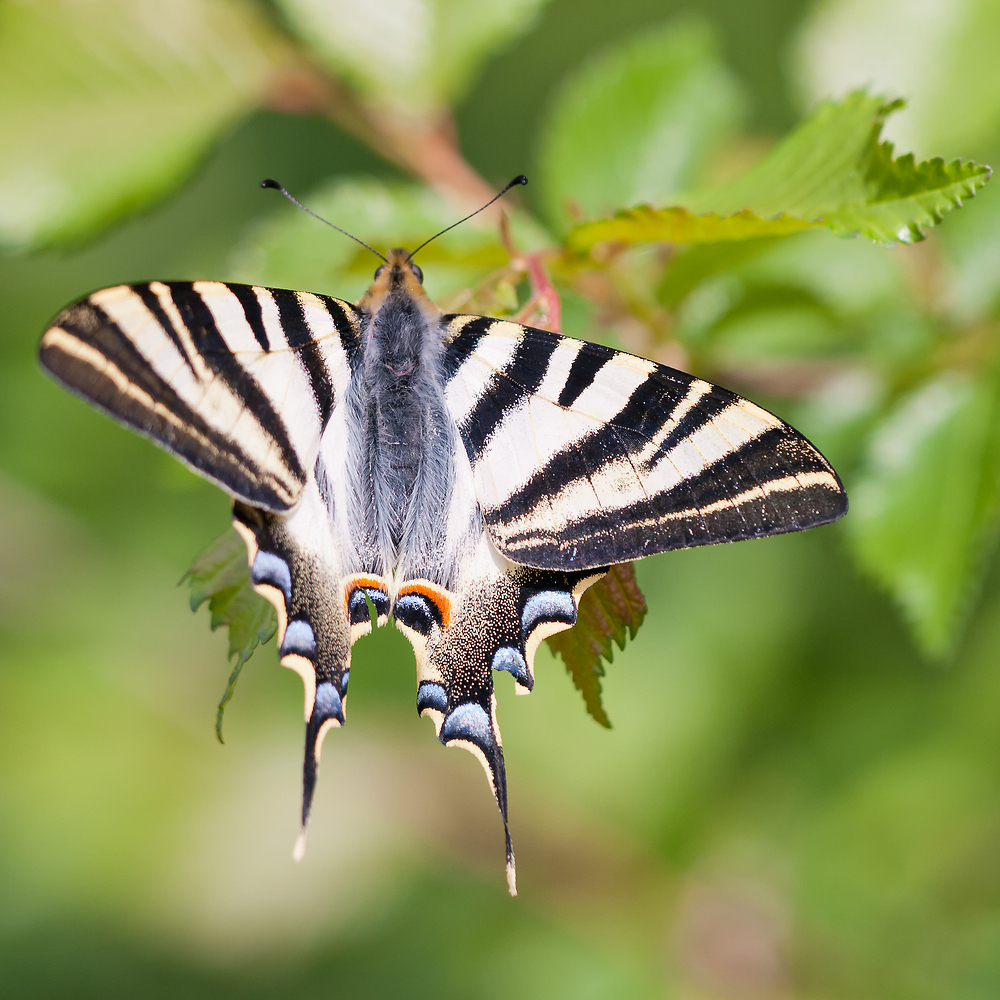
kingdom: Animalia
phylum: Arthropoda
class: Insecta
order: Lepidoptera
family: Papilionidae
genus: Iphiclides
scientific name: Iphiclides feisthamelii
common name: Iberian scarce swallowtail
